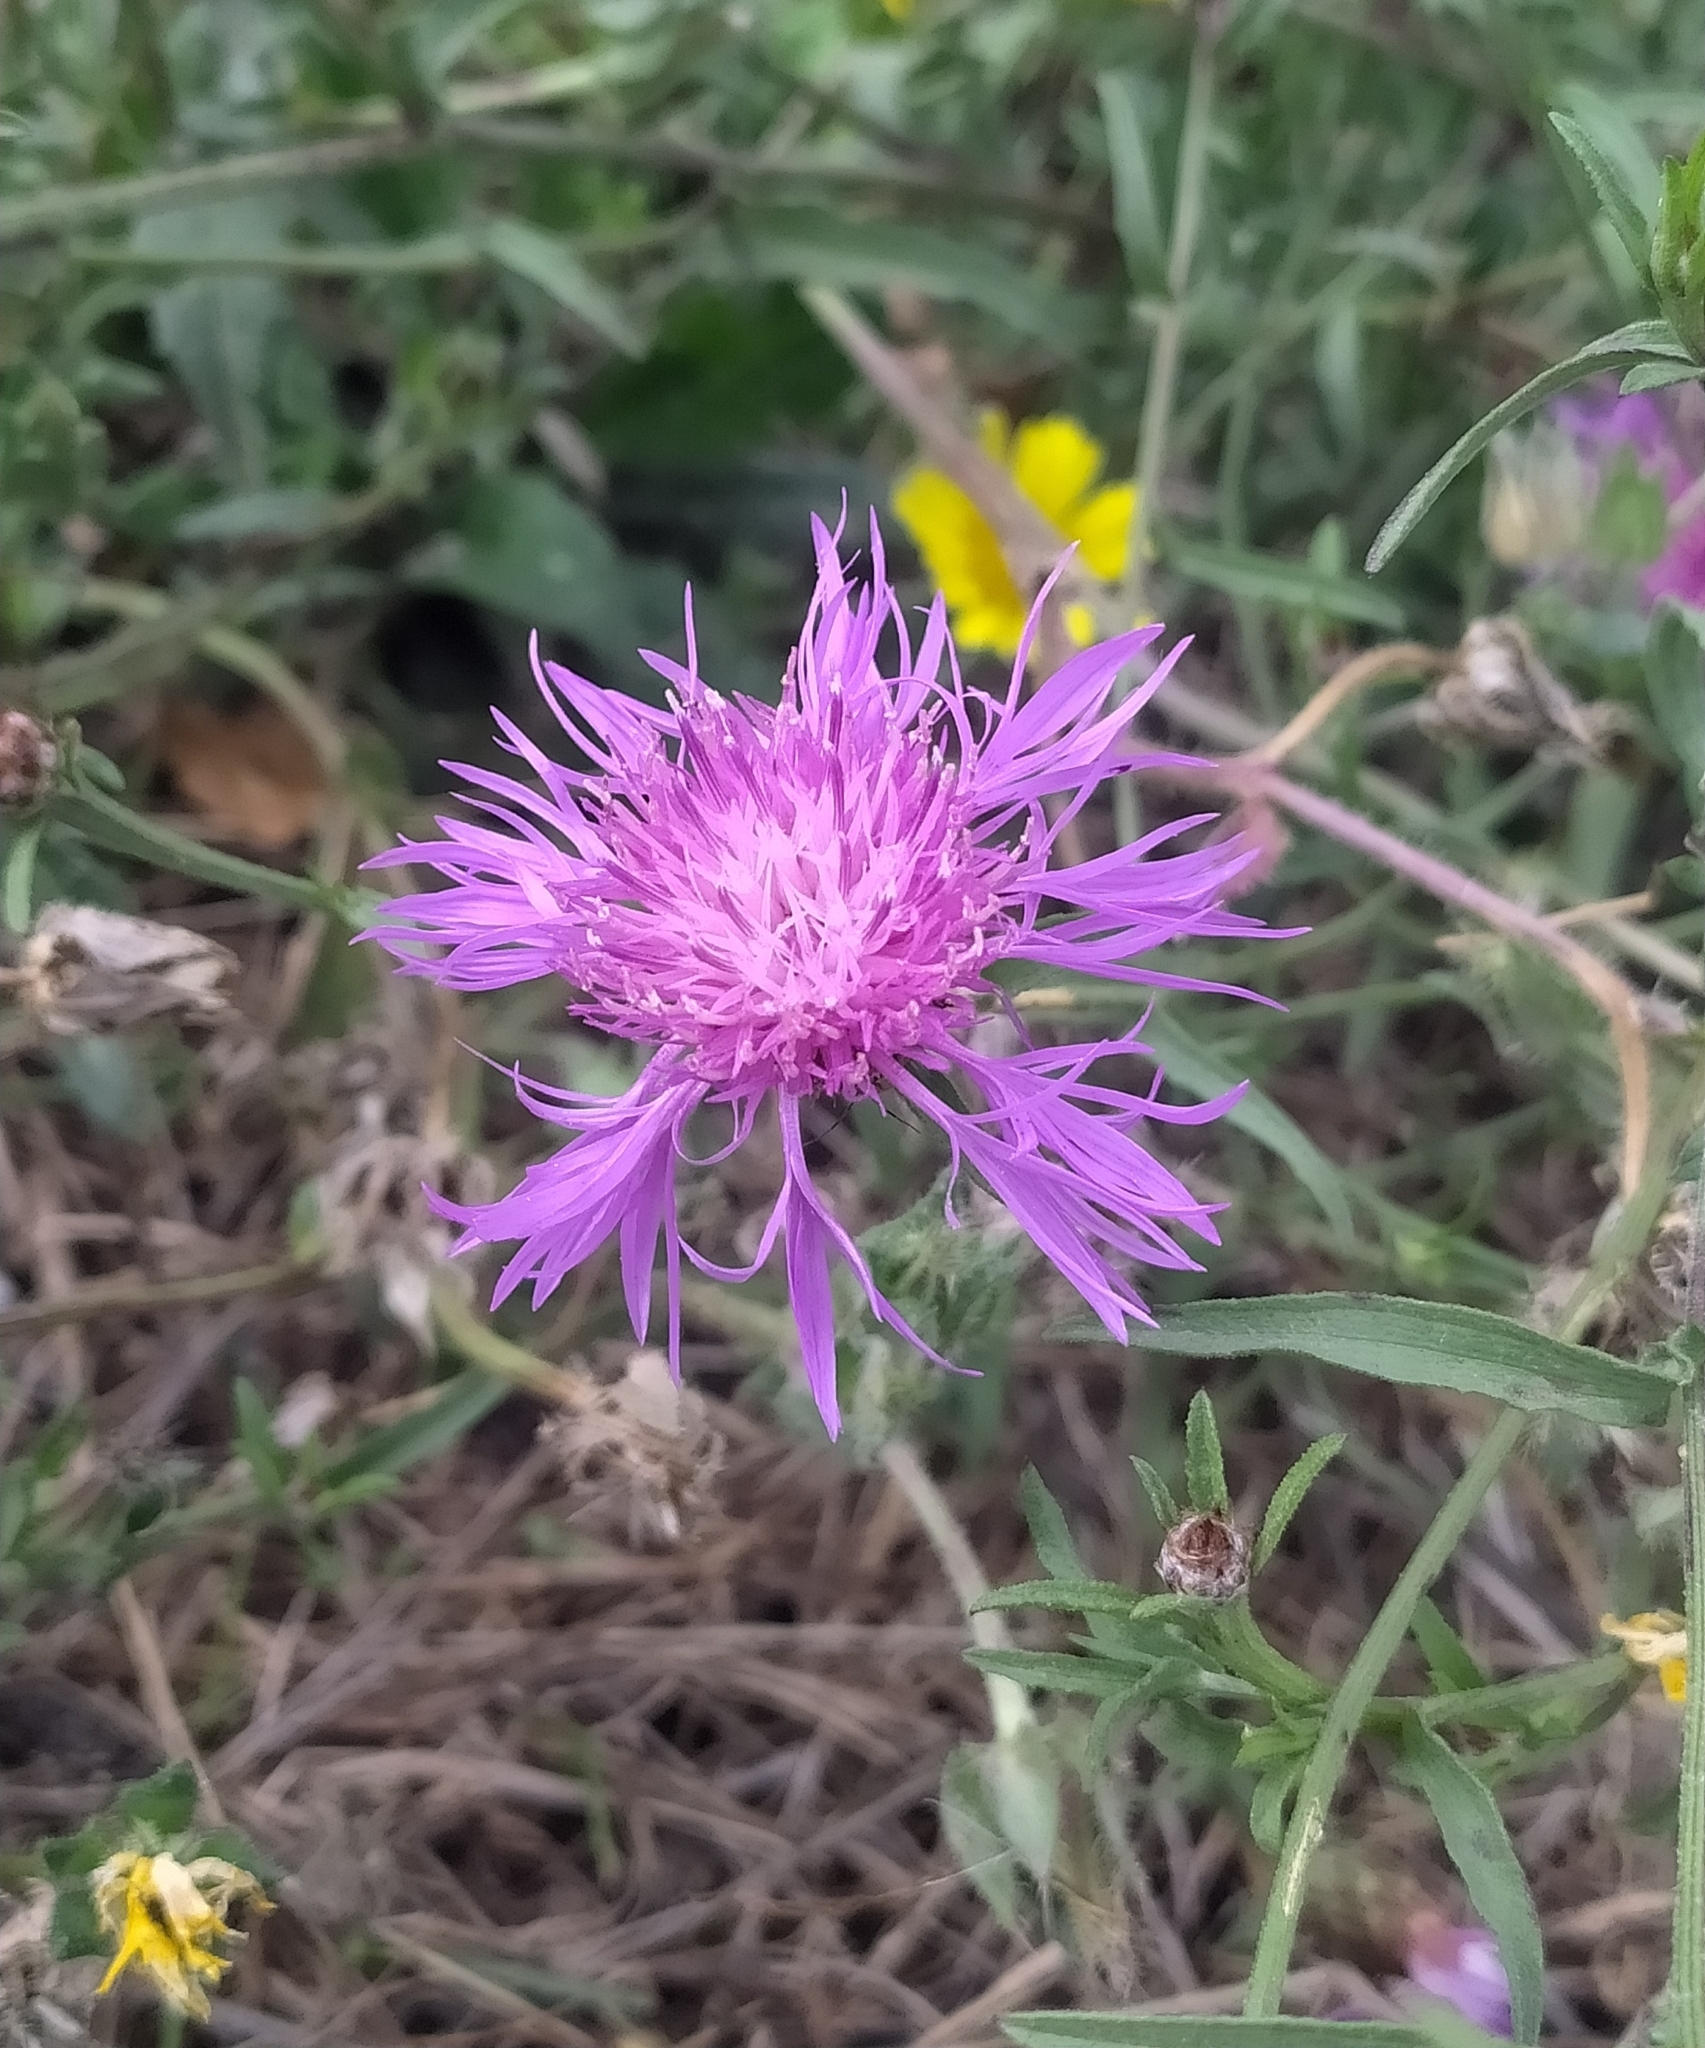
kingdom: Plantae
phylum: Tracheophyta
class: Magnoliopsida
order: Asterales
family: Asteraceae
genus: Centaurea
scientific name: Centaurea jacea
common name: Brown knapweed
